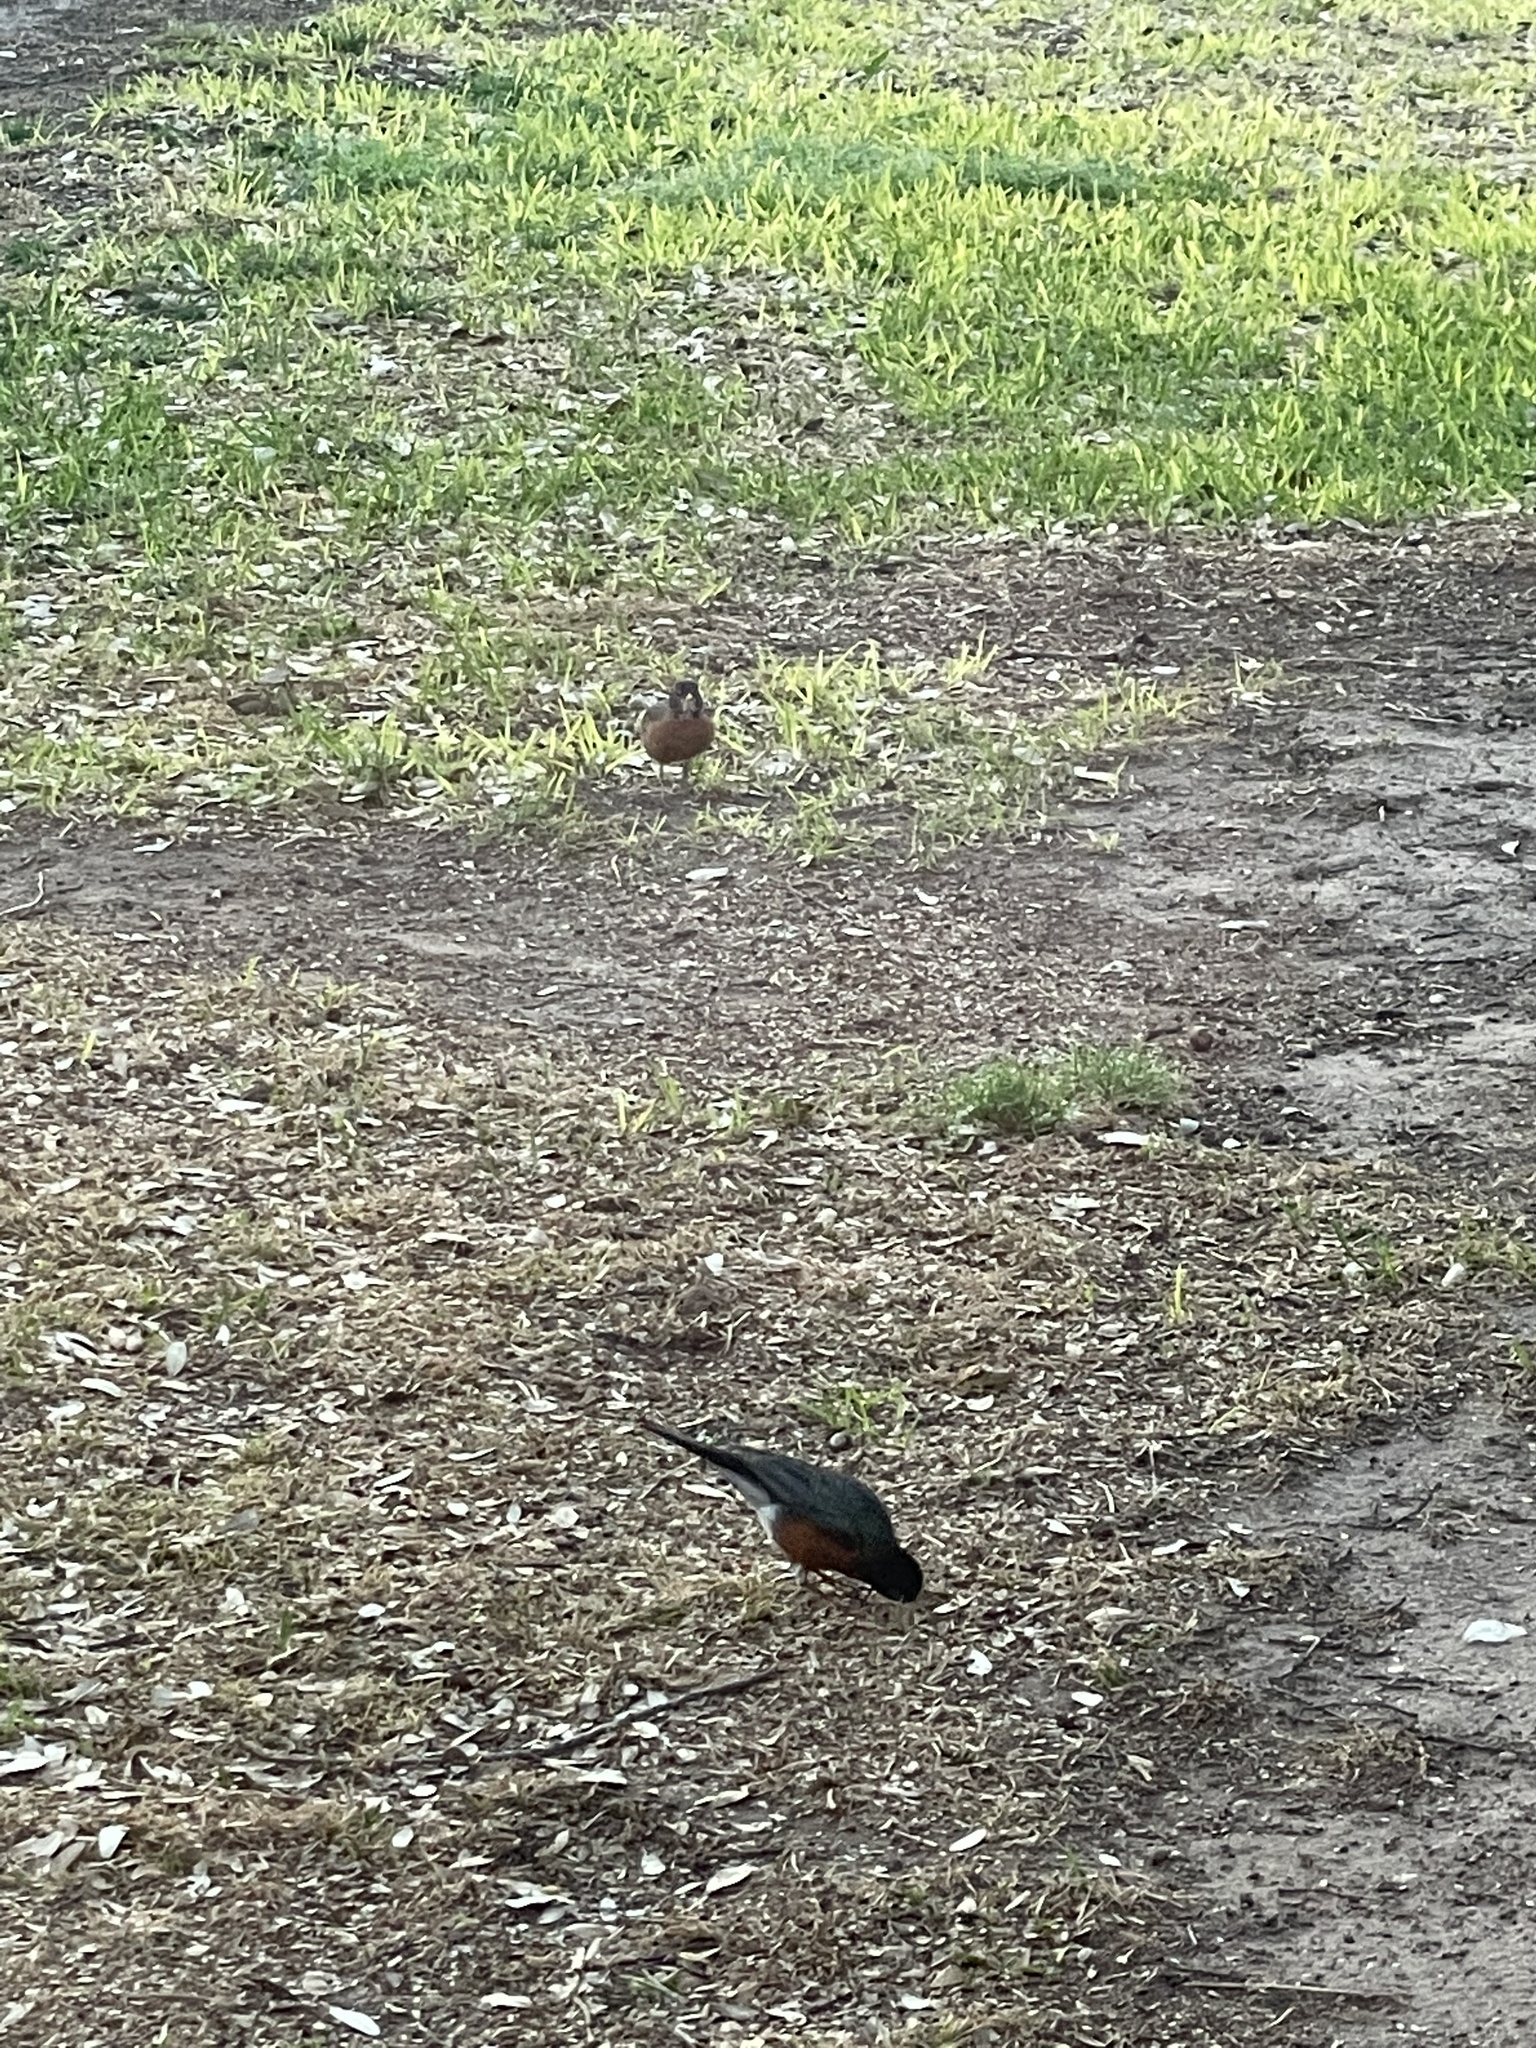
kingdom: Animalia
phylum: Chordata
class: Aves
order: Passeriformes
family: Turdidae
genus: Turdus
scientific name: Turdus migratorius
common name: American robin
